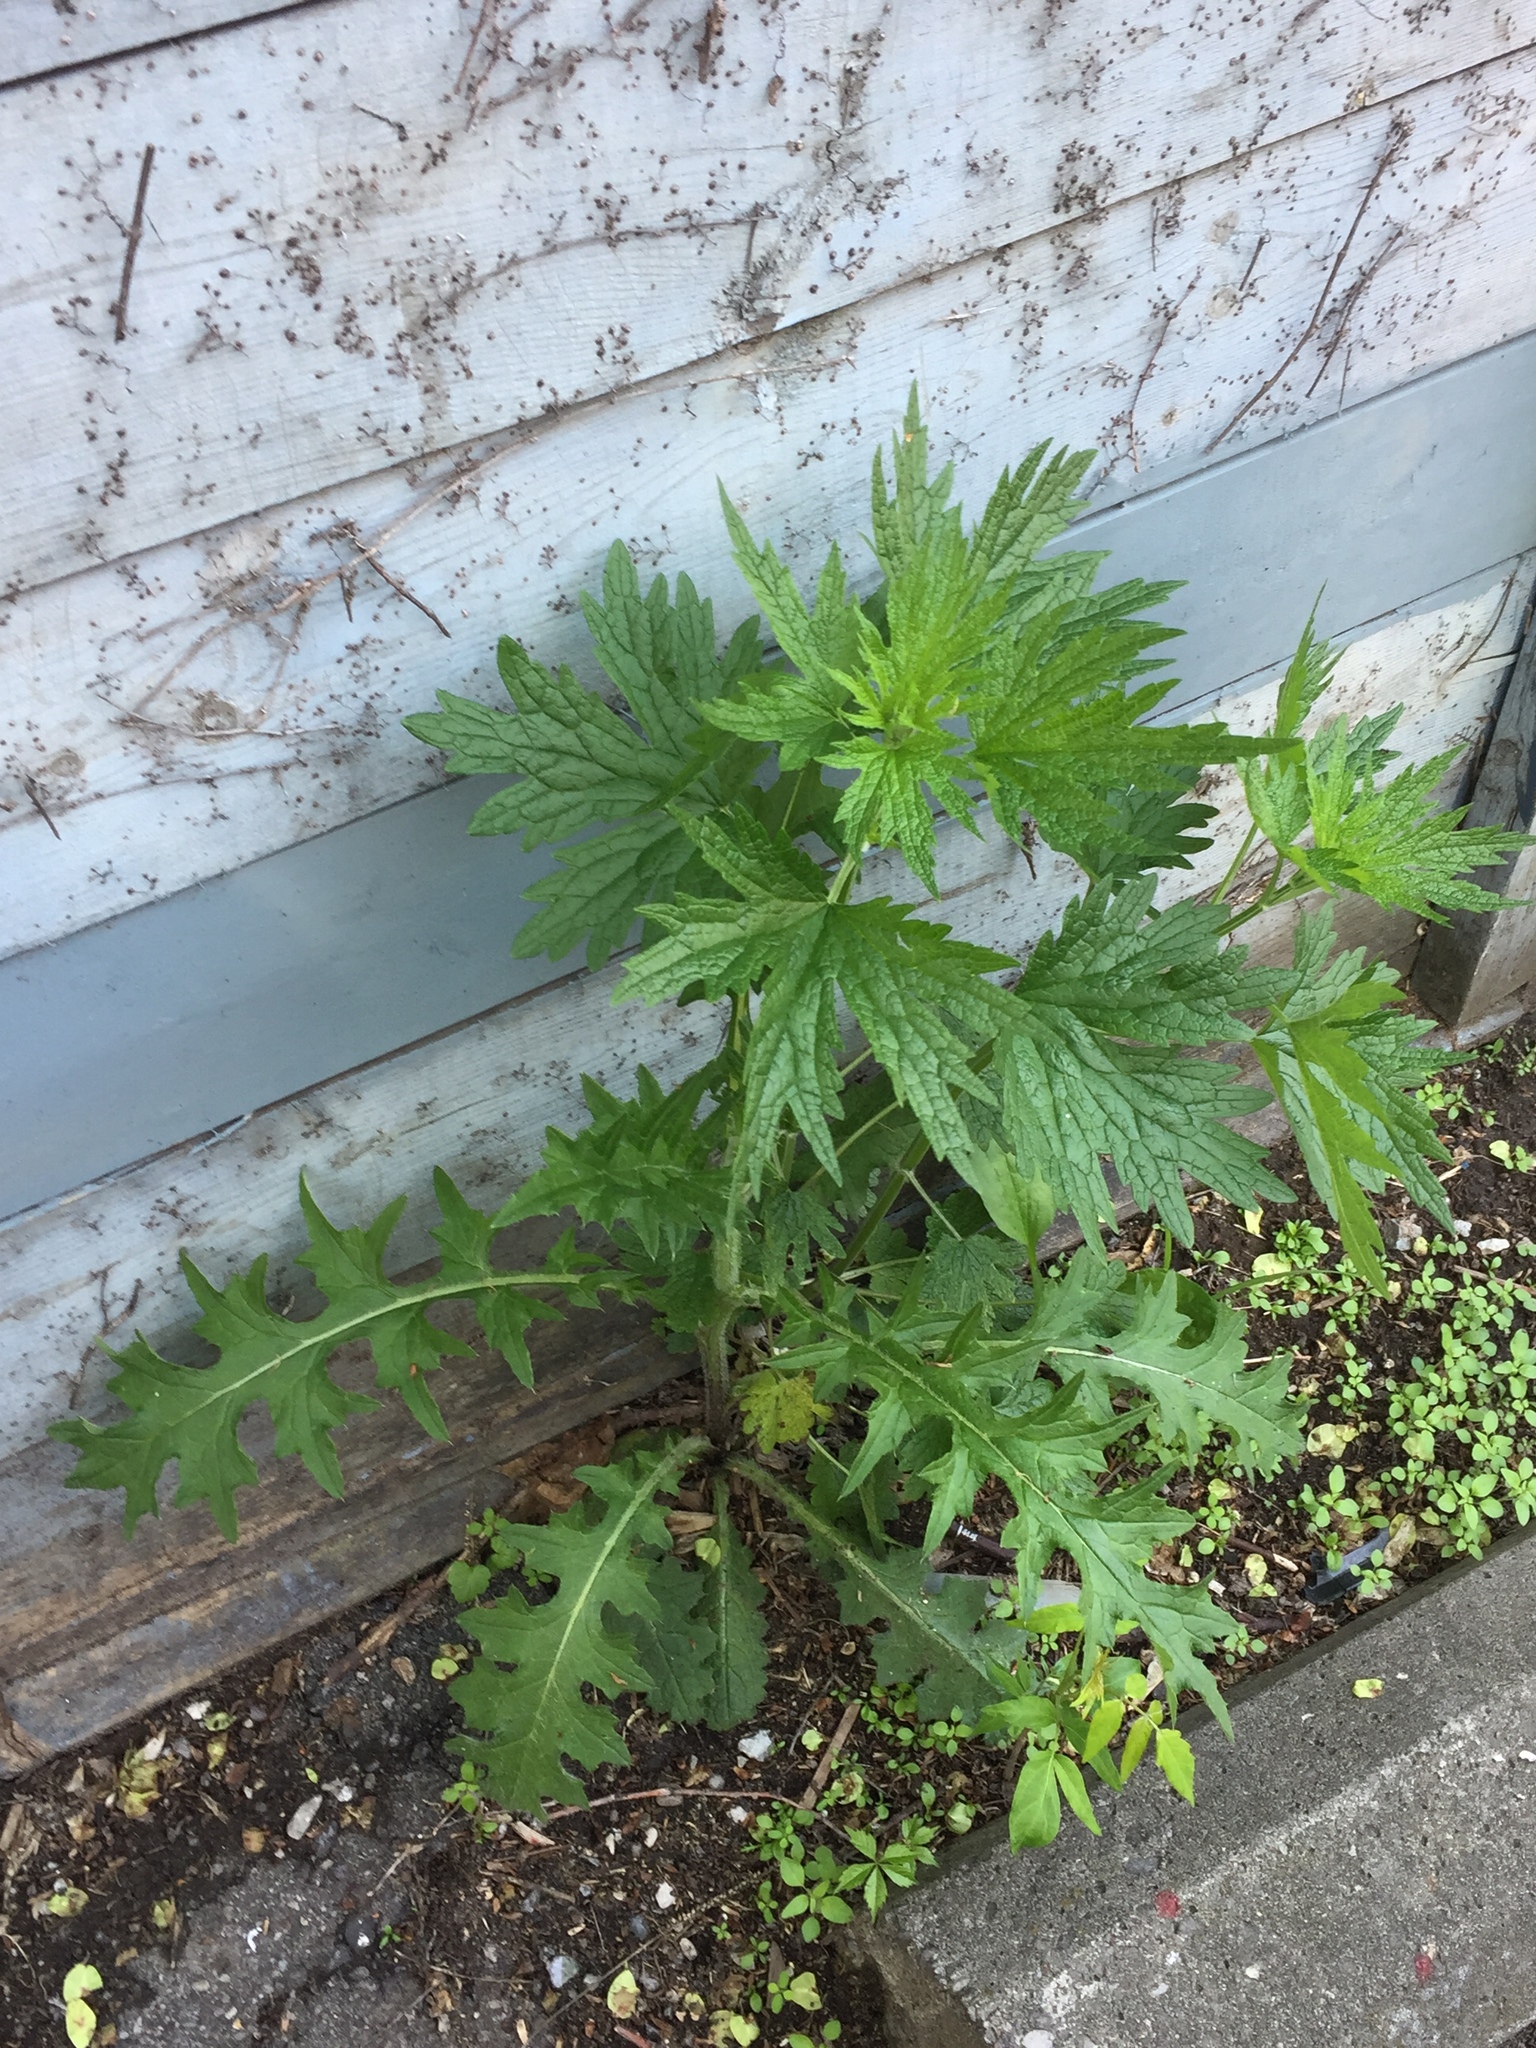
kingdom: Plantae
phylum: Tracheophyta
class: Magnoliopsida
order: Lamiales
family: Lamiaceae
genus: Leonurus
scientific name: Leonurus cardiaca
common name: Motherwort
